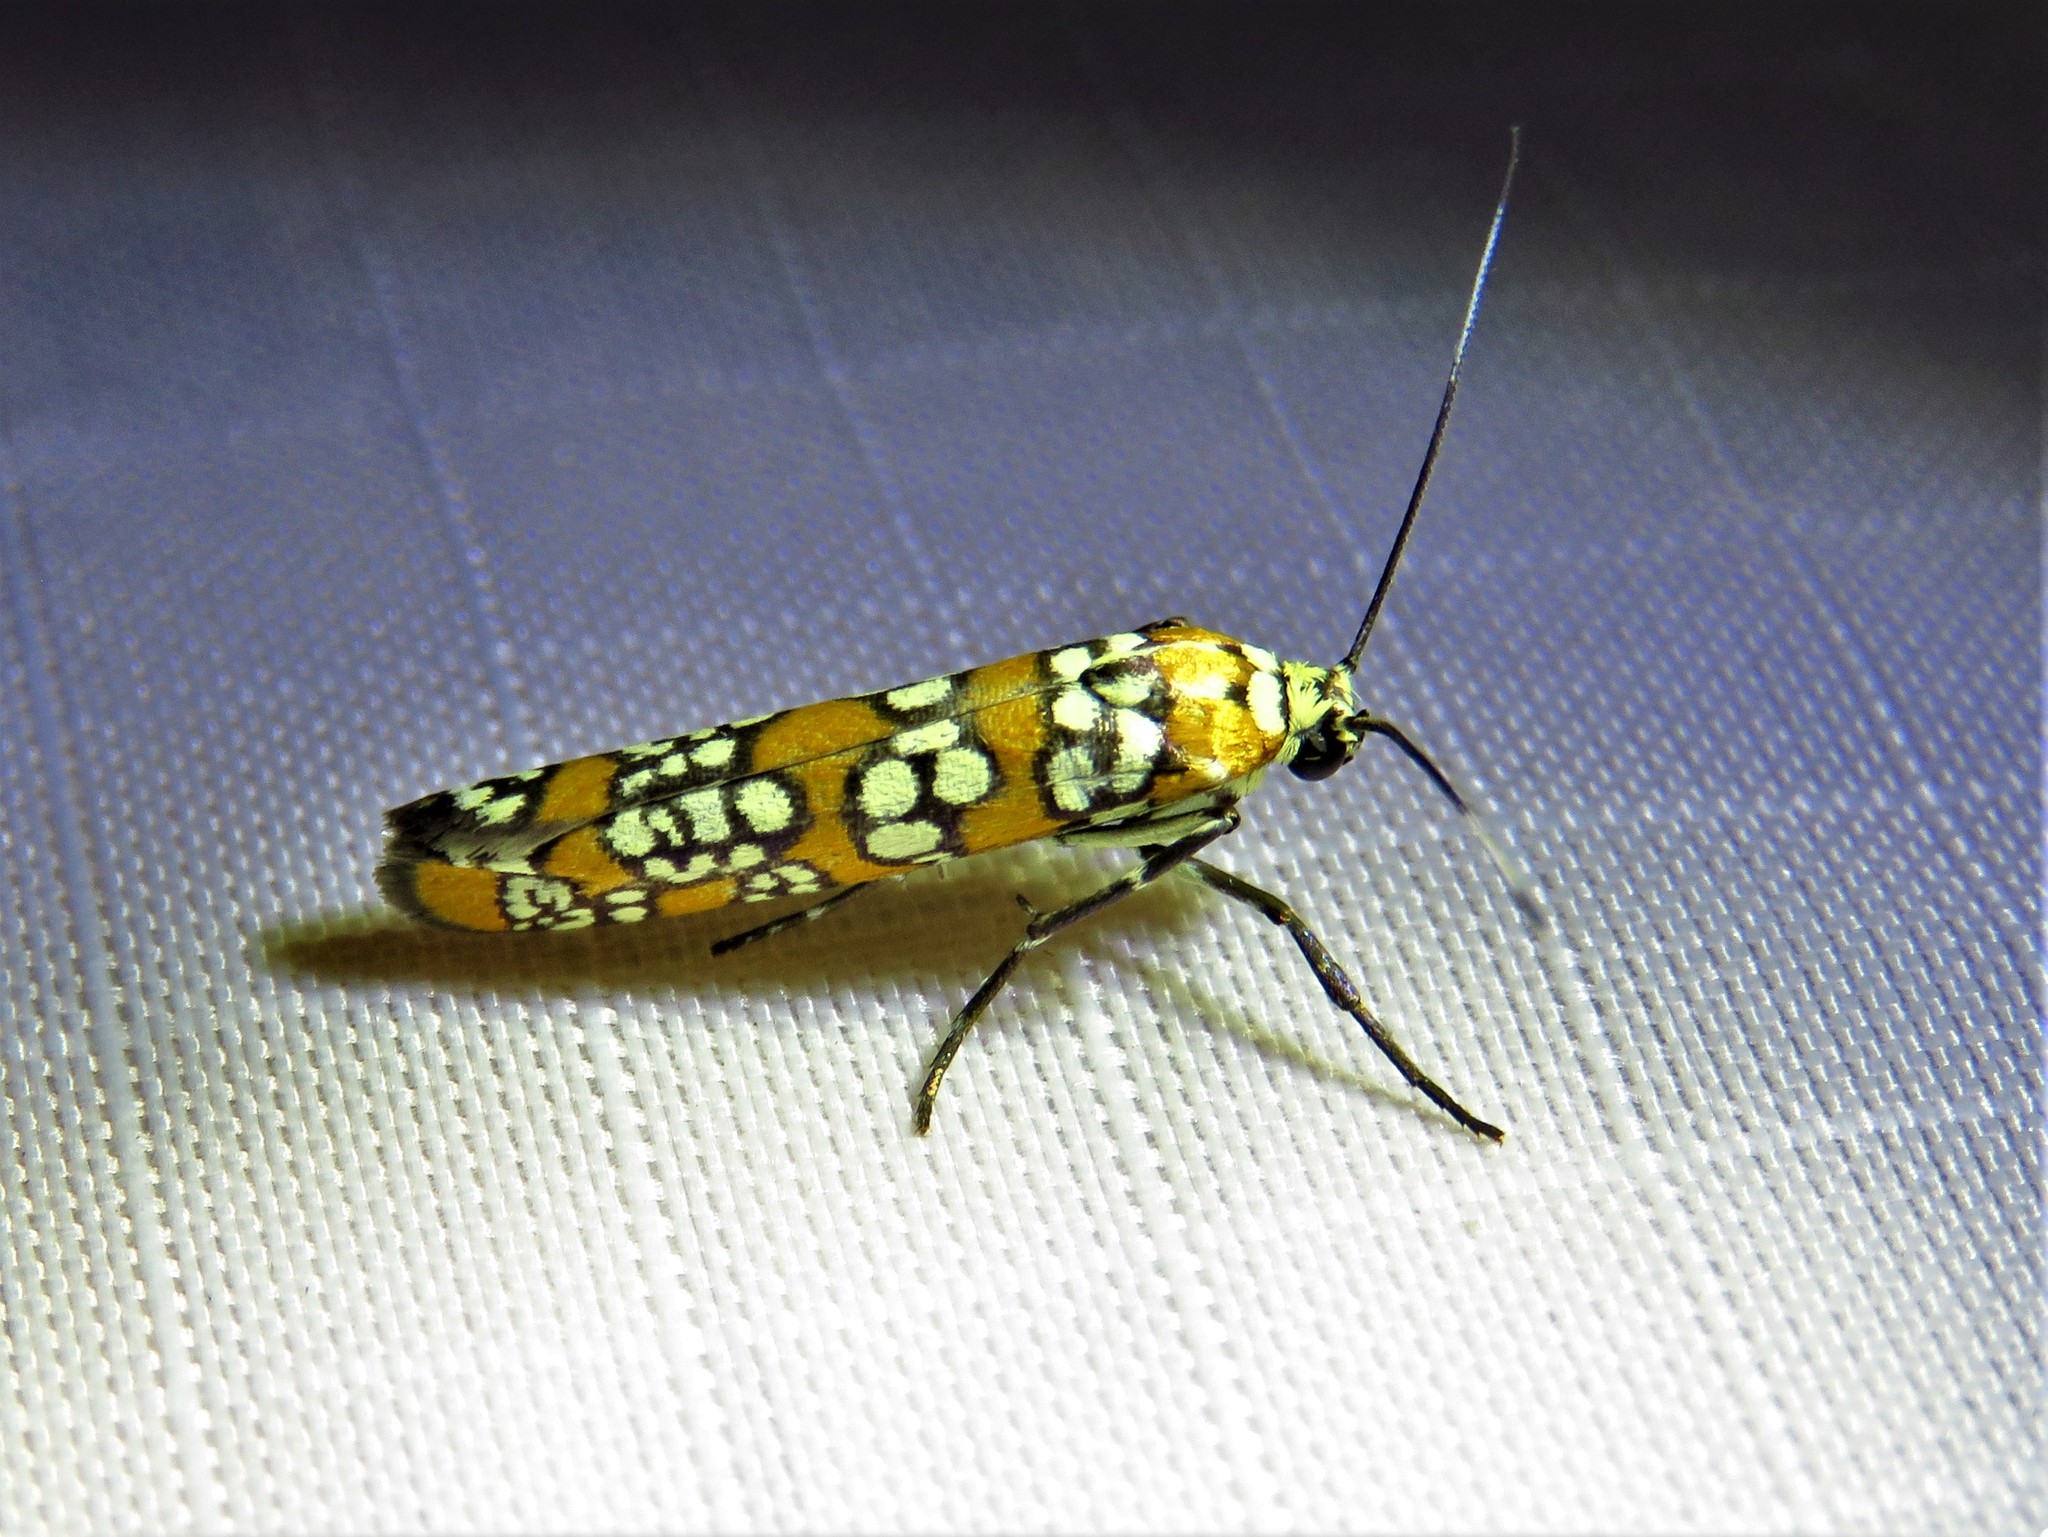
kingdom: Animalia
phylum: Arthropoda
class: Insecta
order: Lepidoptera
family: Attevidae
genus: Atteva
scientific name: Atteva punctella
